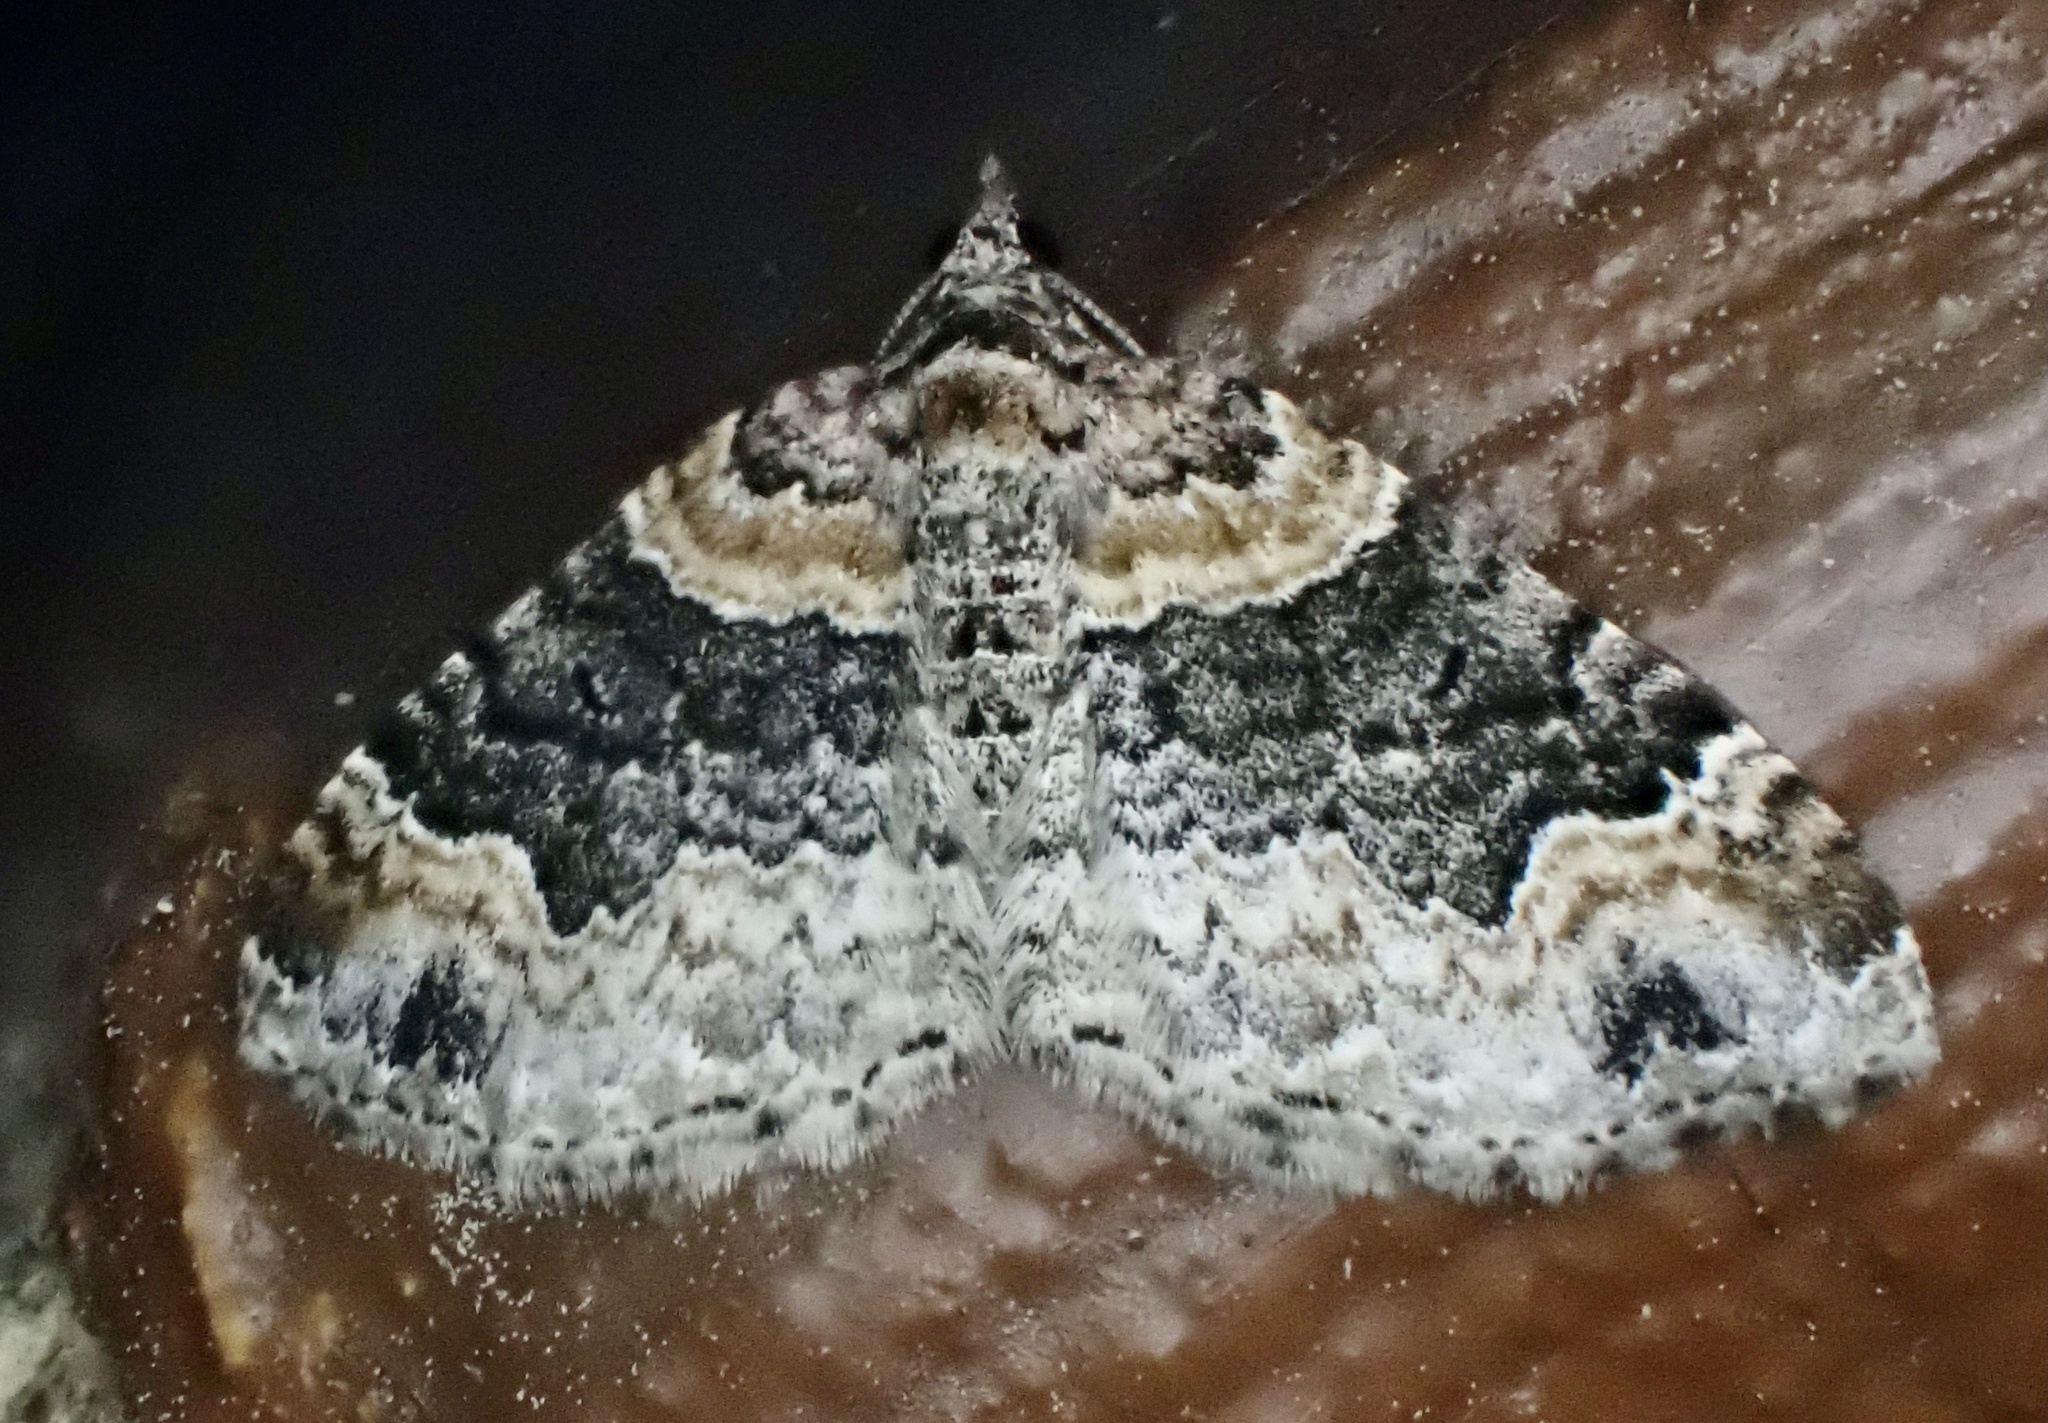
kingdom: Animalia
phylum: Arthropoda
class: Insecta
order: Lepidoptera
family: Geometridae
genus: Xanthorhoe
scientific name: Xanthorhoe ferrugata
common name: Dark-barred twin-spot carpet
